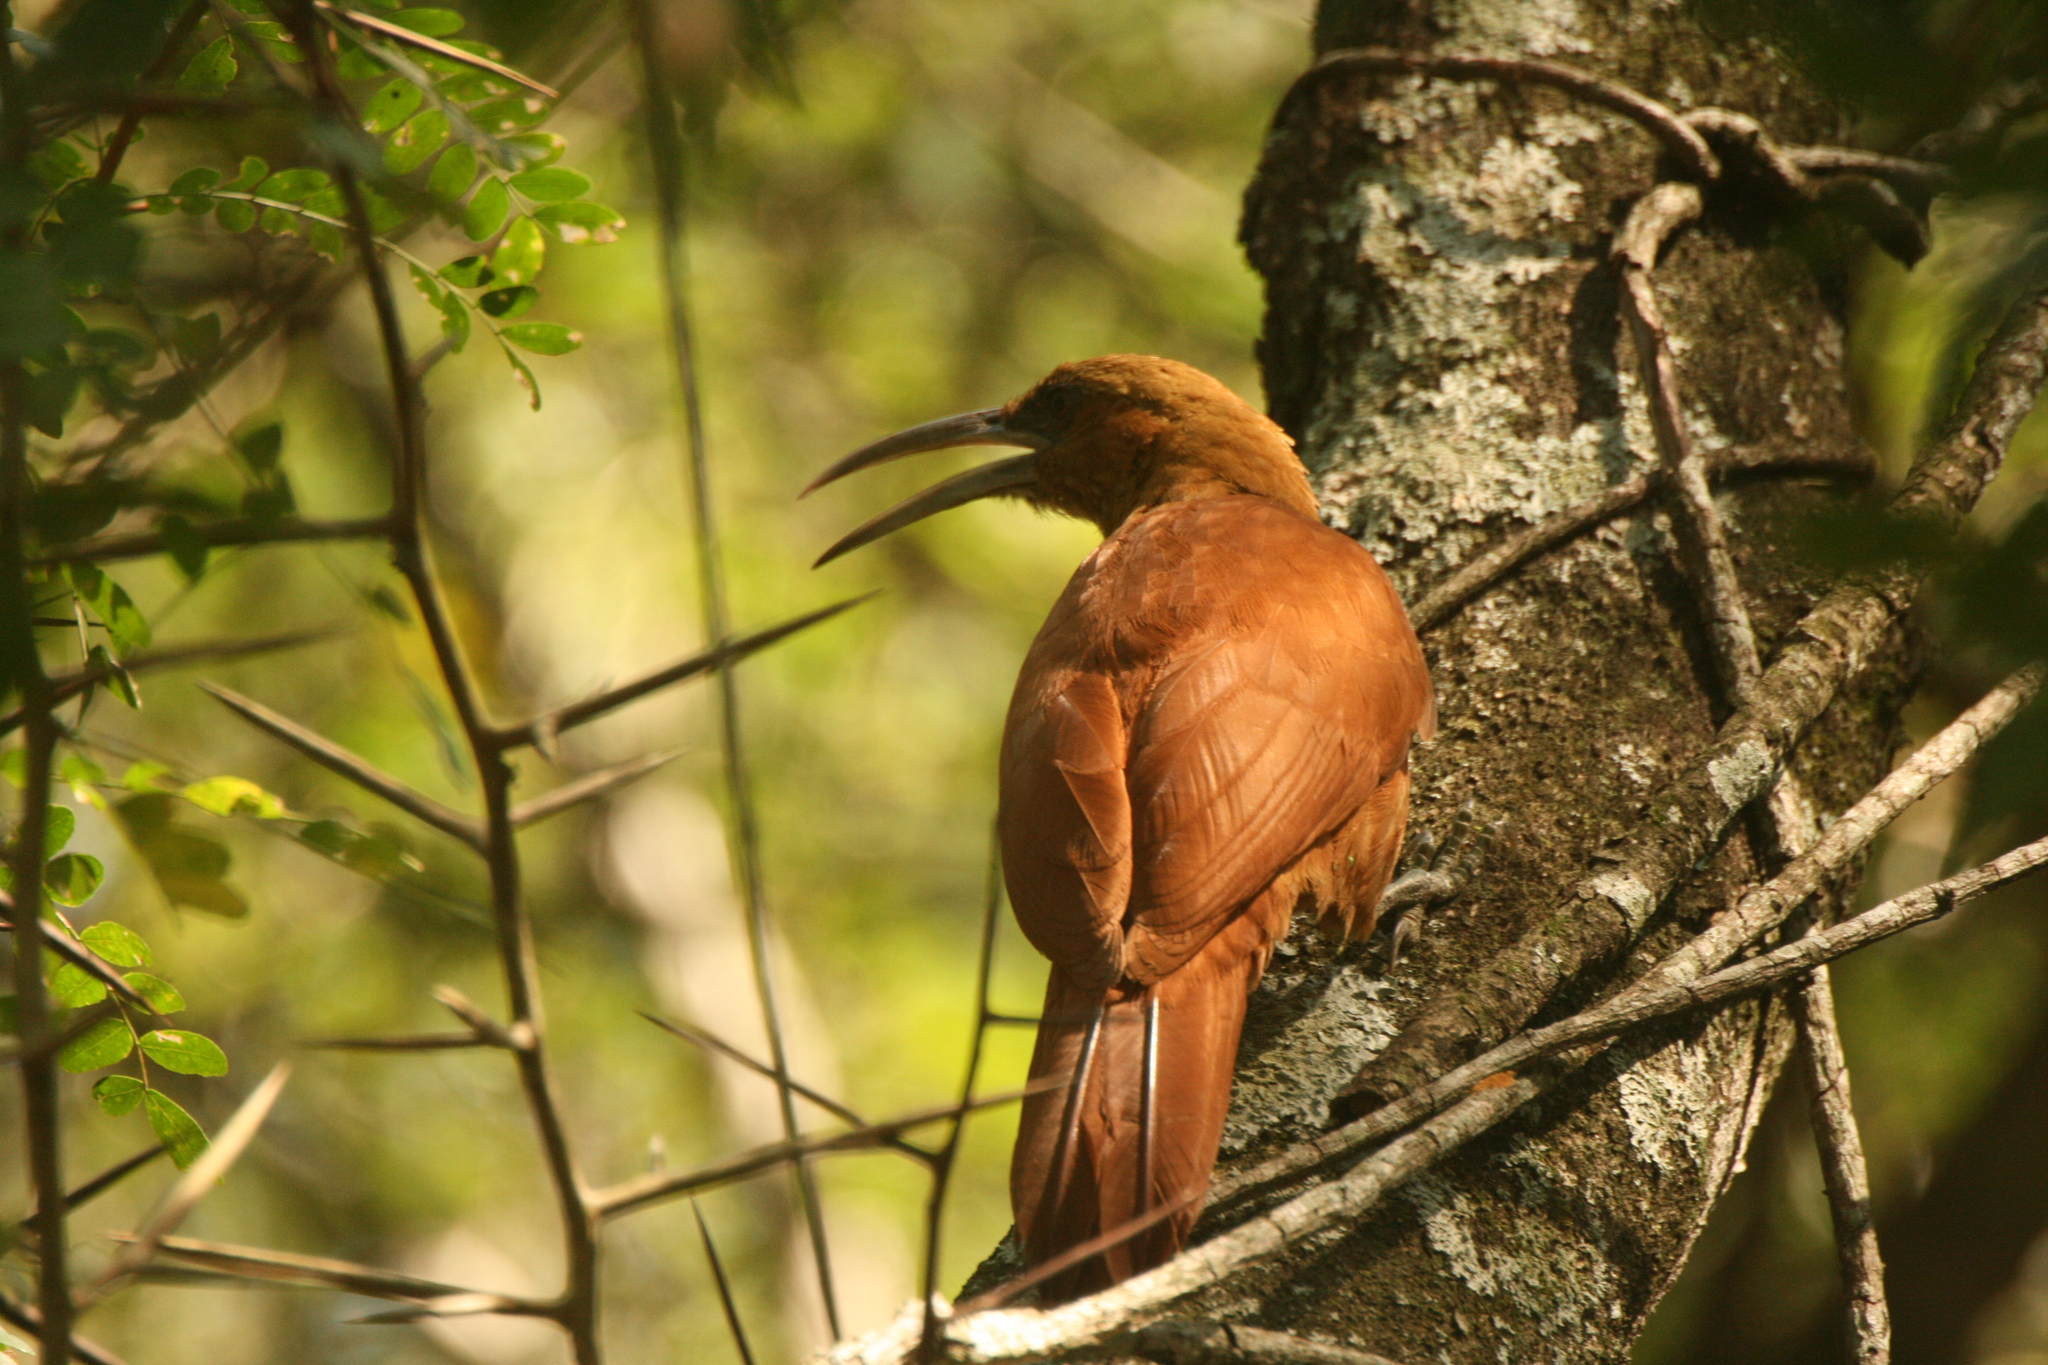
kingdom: Animalia
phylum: Chordata
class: Aves
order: Passeriformes
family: Furnariidae
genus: Xiphocolaptes
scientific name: Xiphocolaptes major
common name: Great rufous woodcreeper
